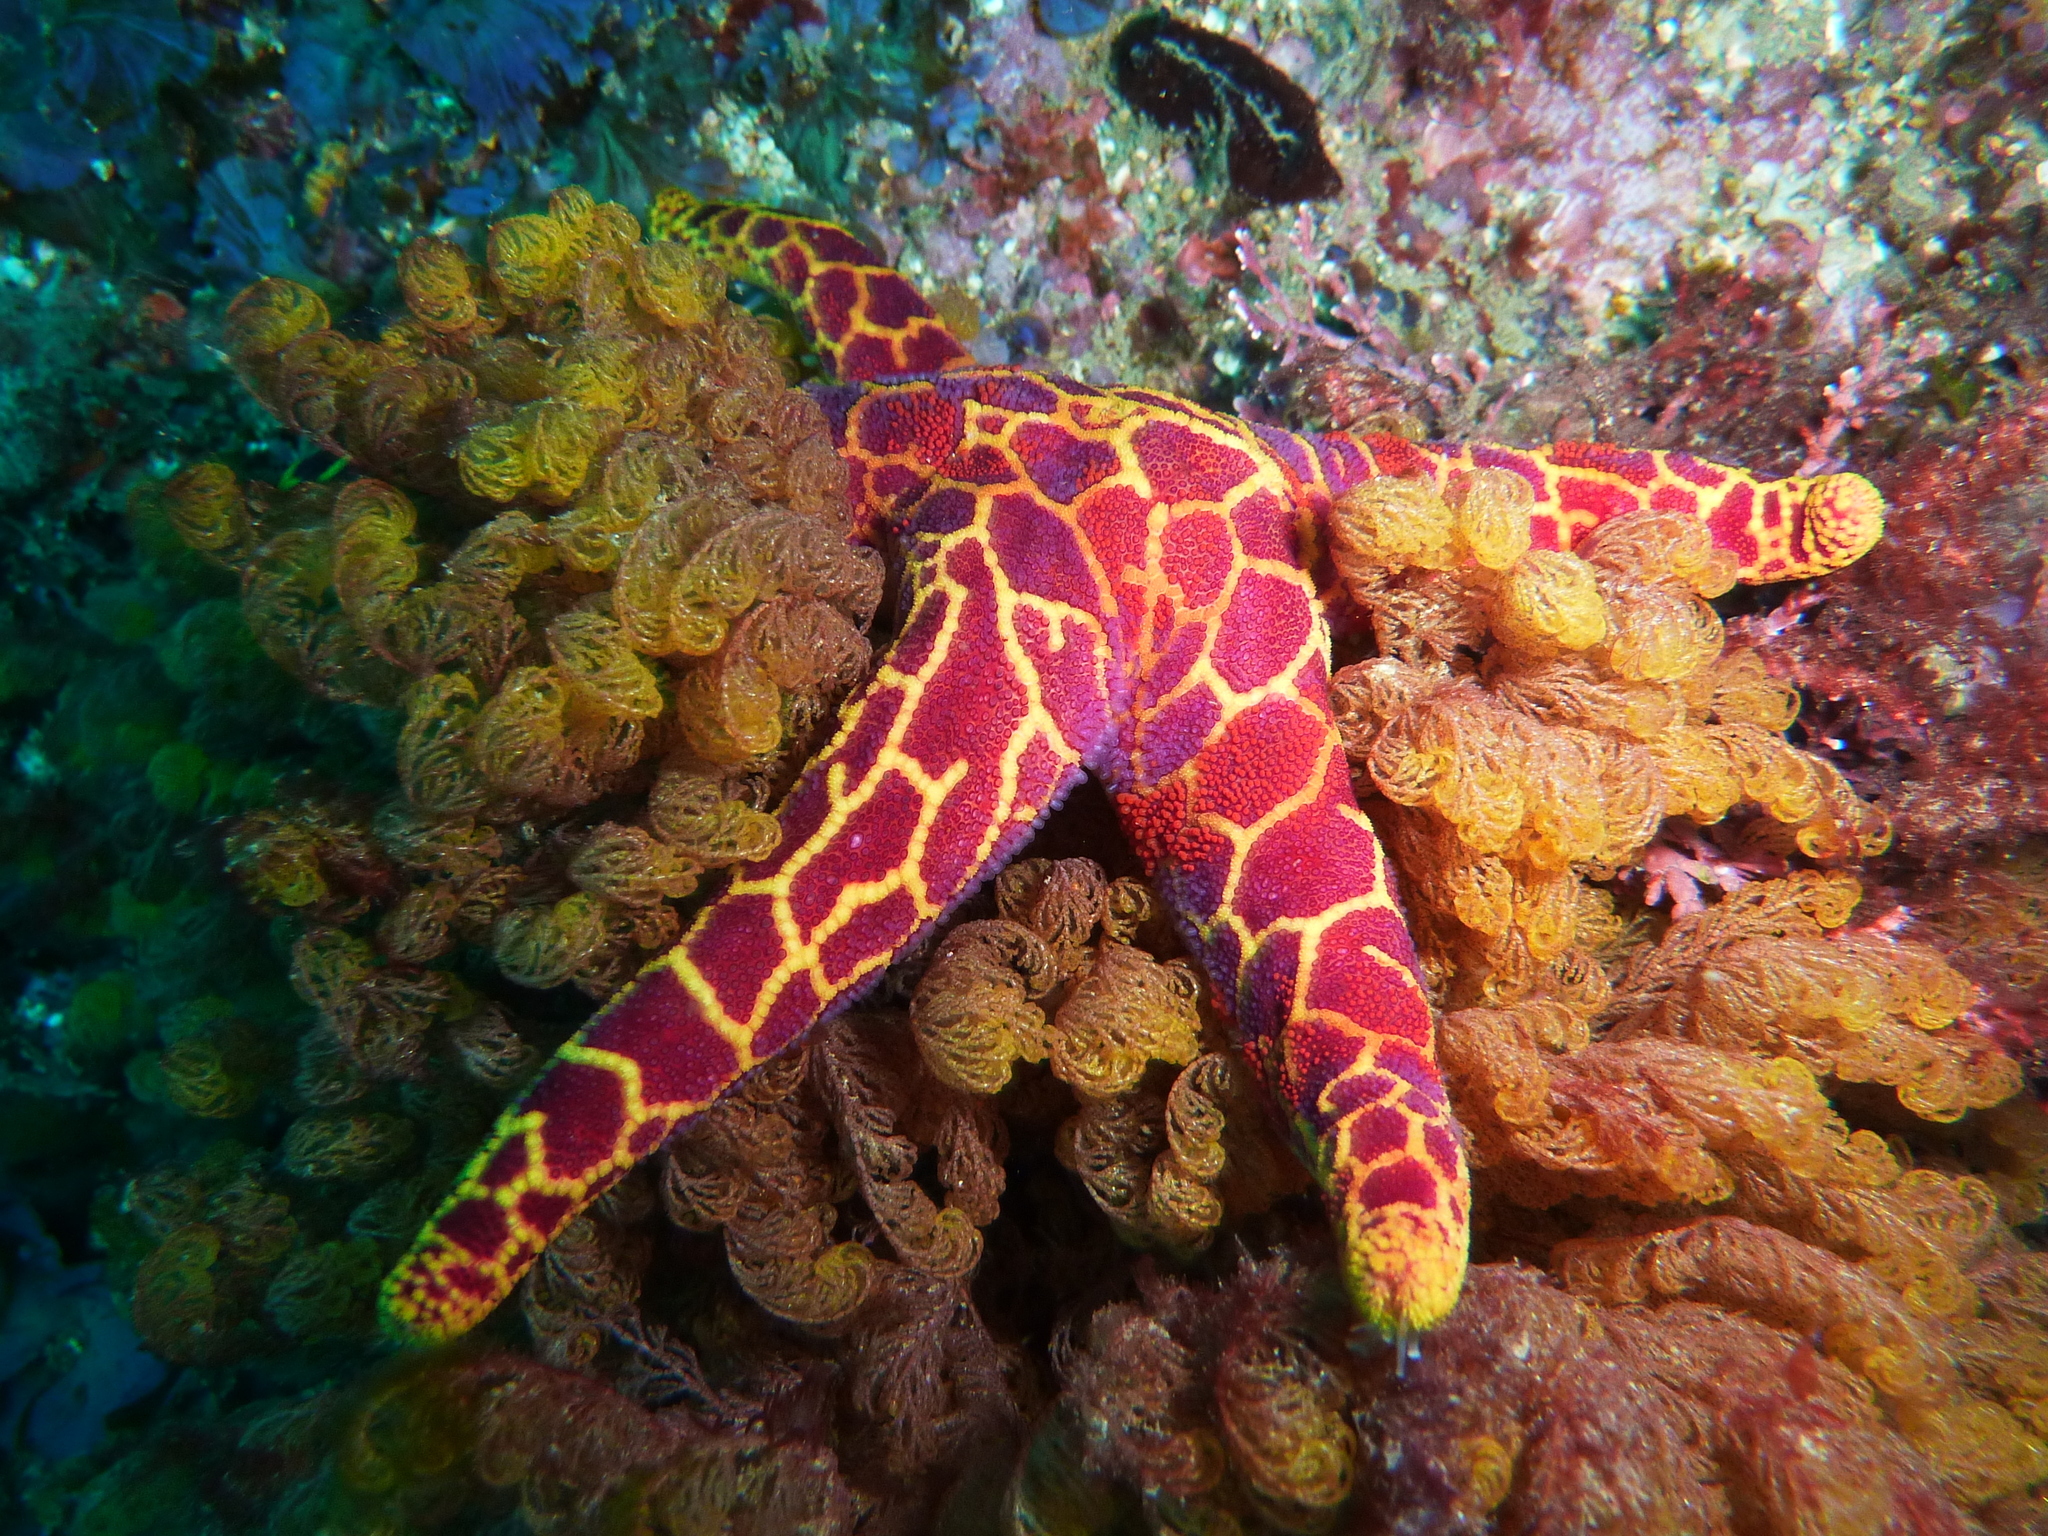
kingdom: Animalia
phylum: Echinodermata
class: Asteroidea
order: Spinulosida
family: Echinasteridae
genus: Plectaster
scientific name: Plectaster decanus
